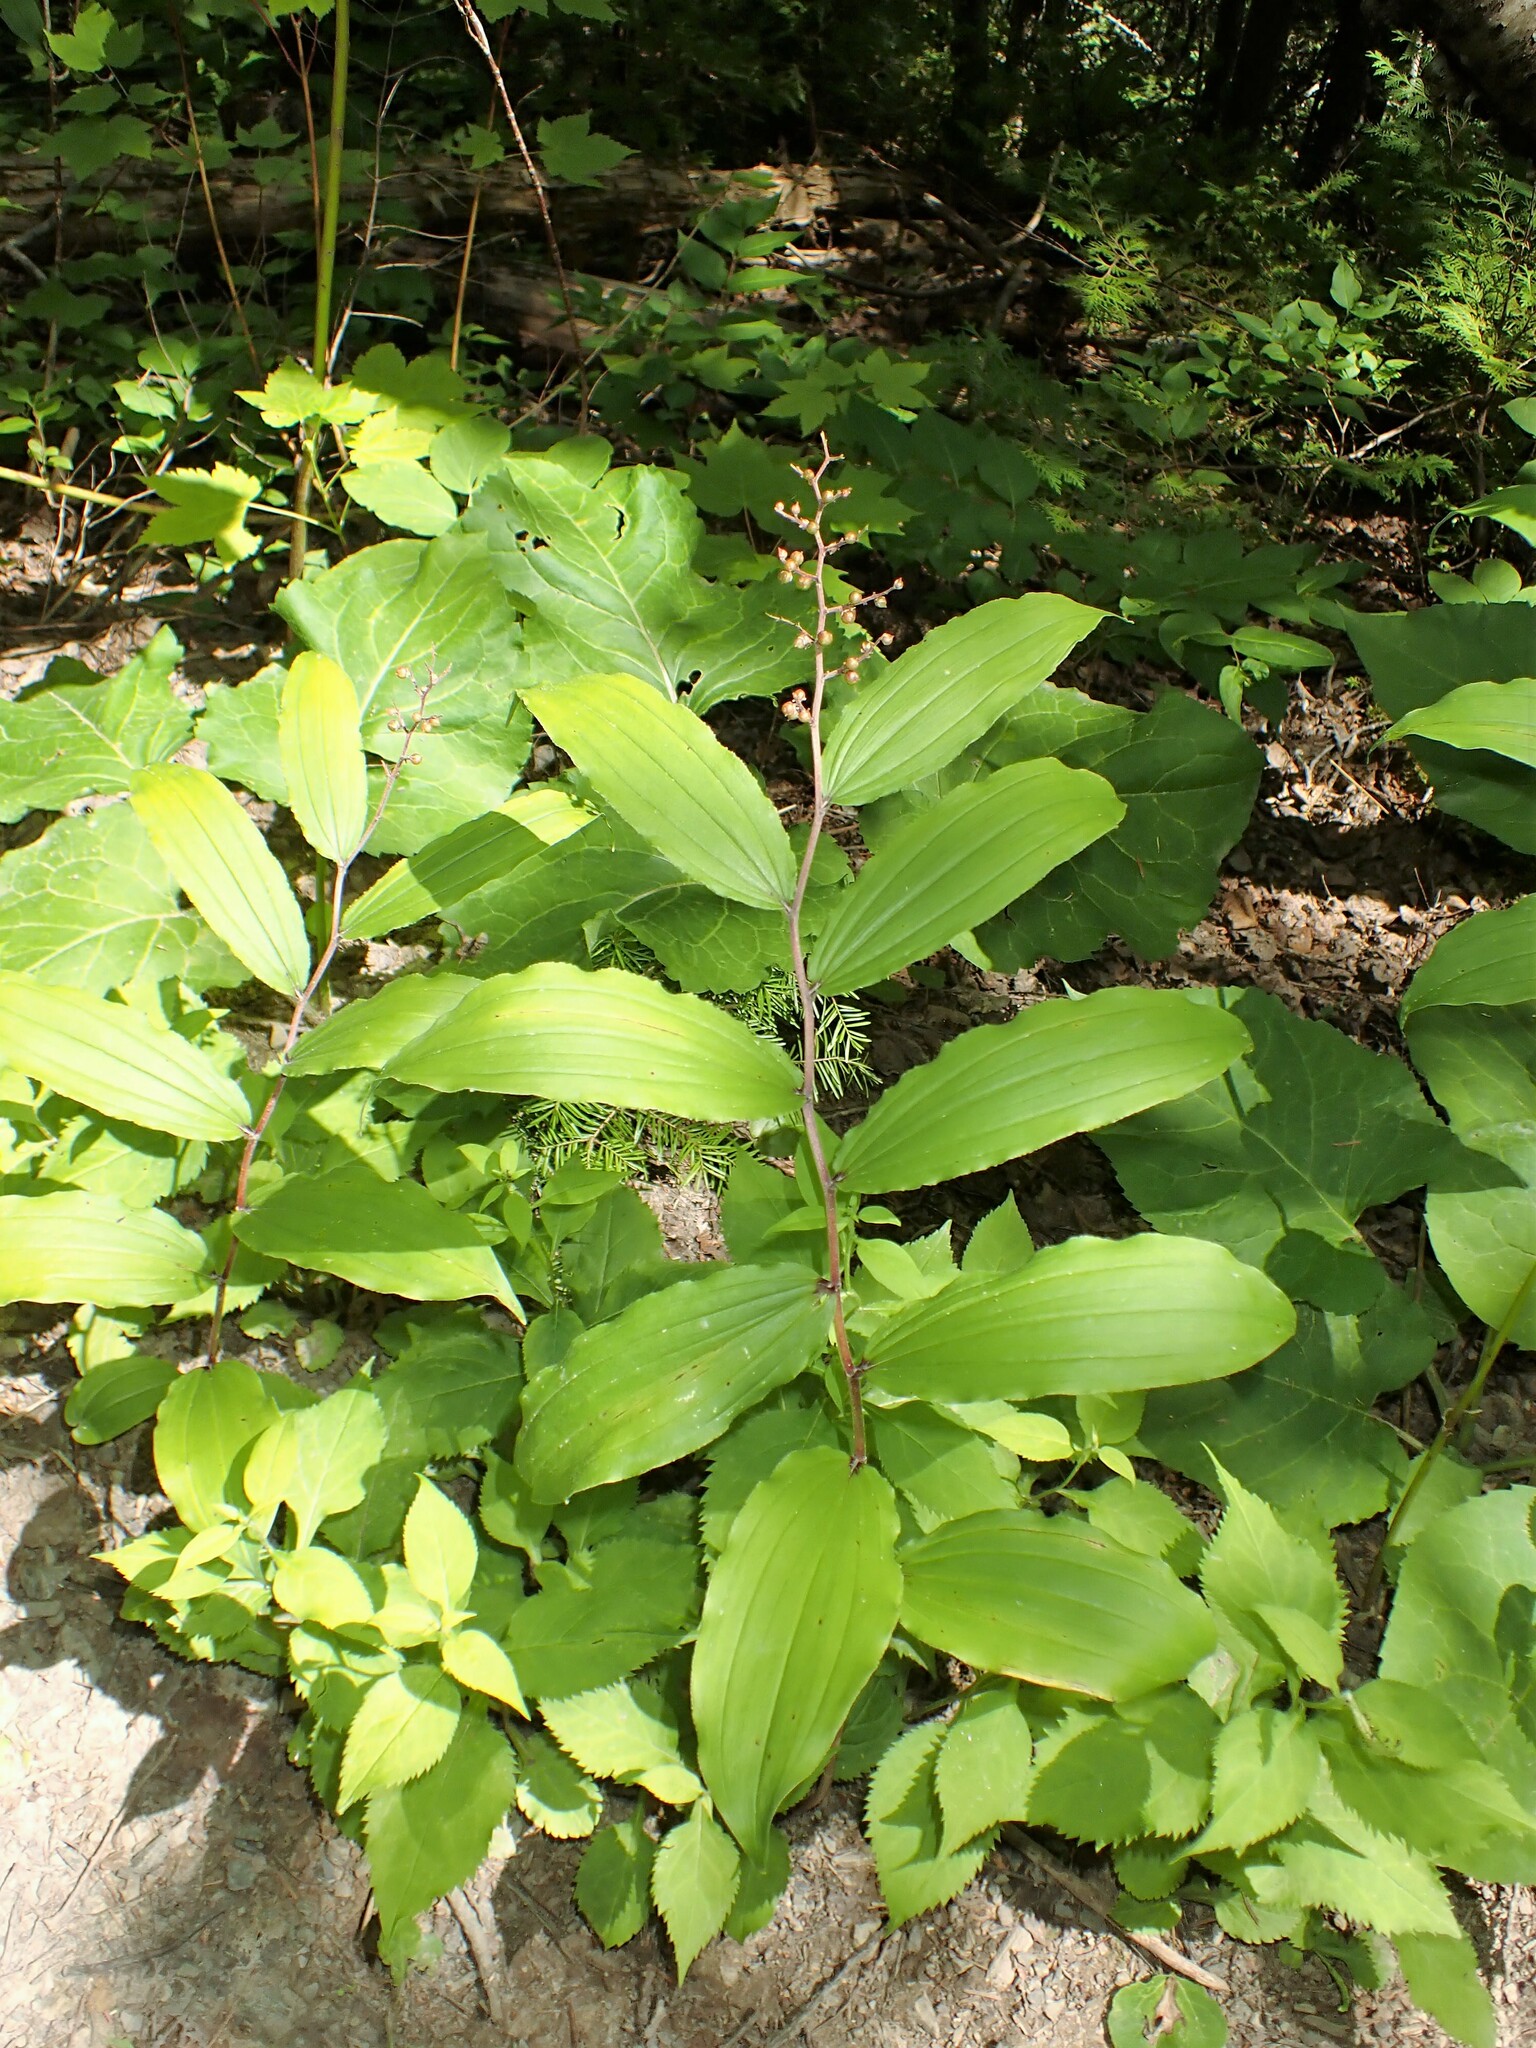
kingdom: Plantae
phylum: Tracheophyta
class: Liliopsida
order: Asparagales
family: Asparagaceae
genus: Maianthemum
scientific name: Maianthemum racemosum
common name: False spikenard
